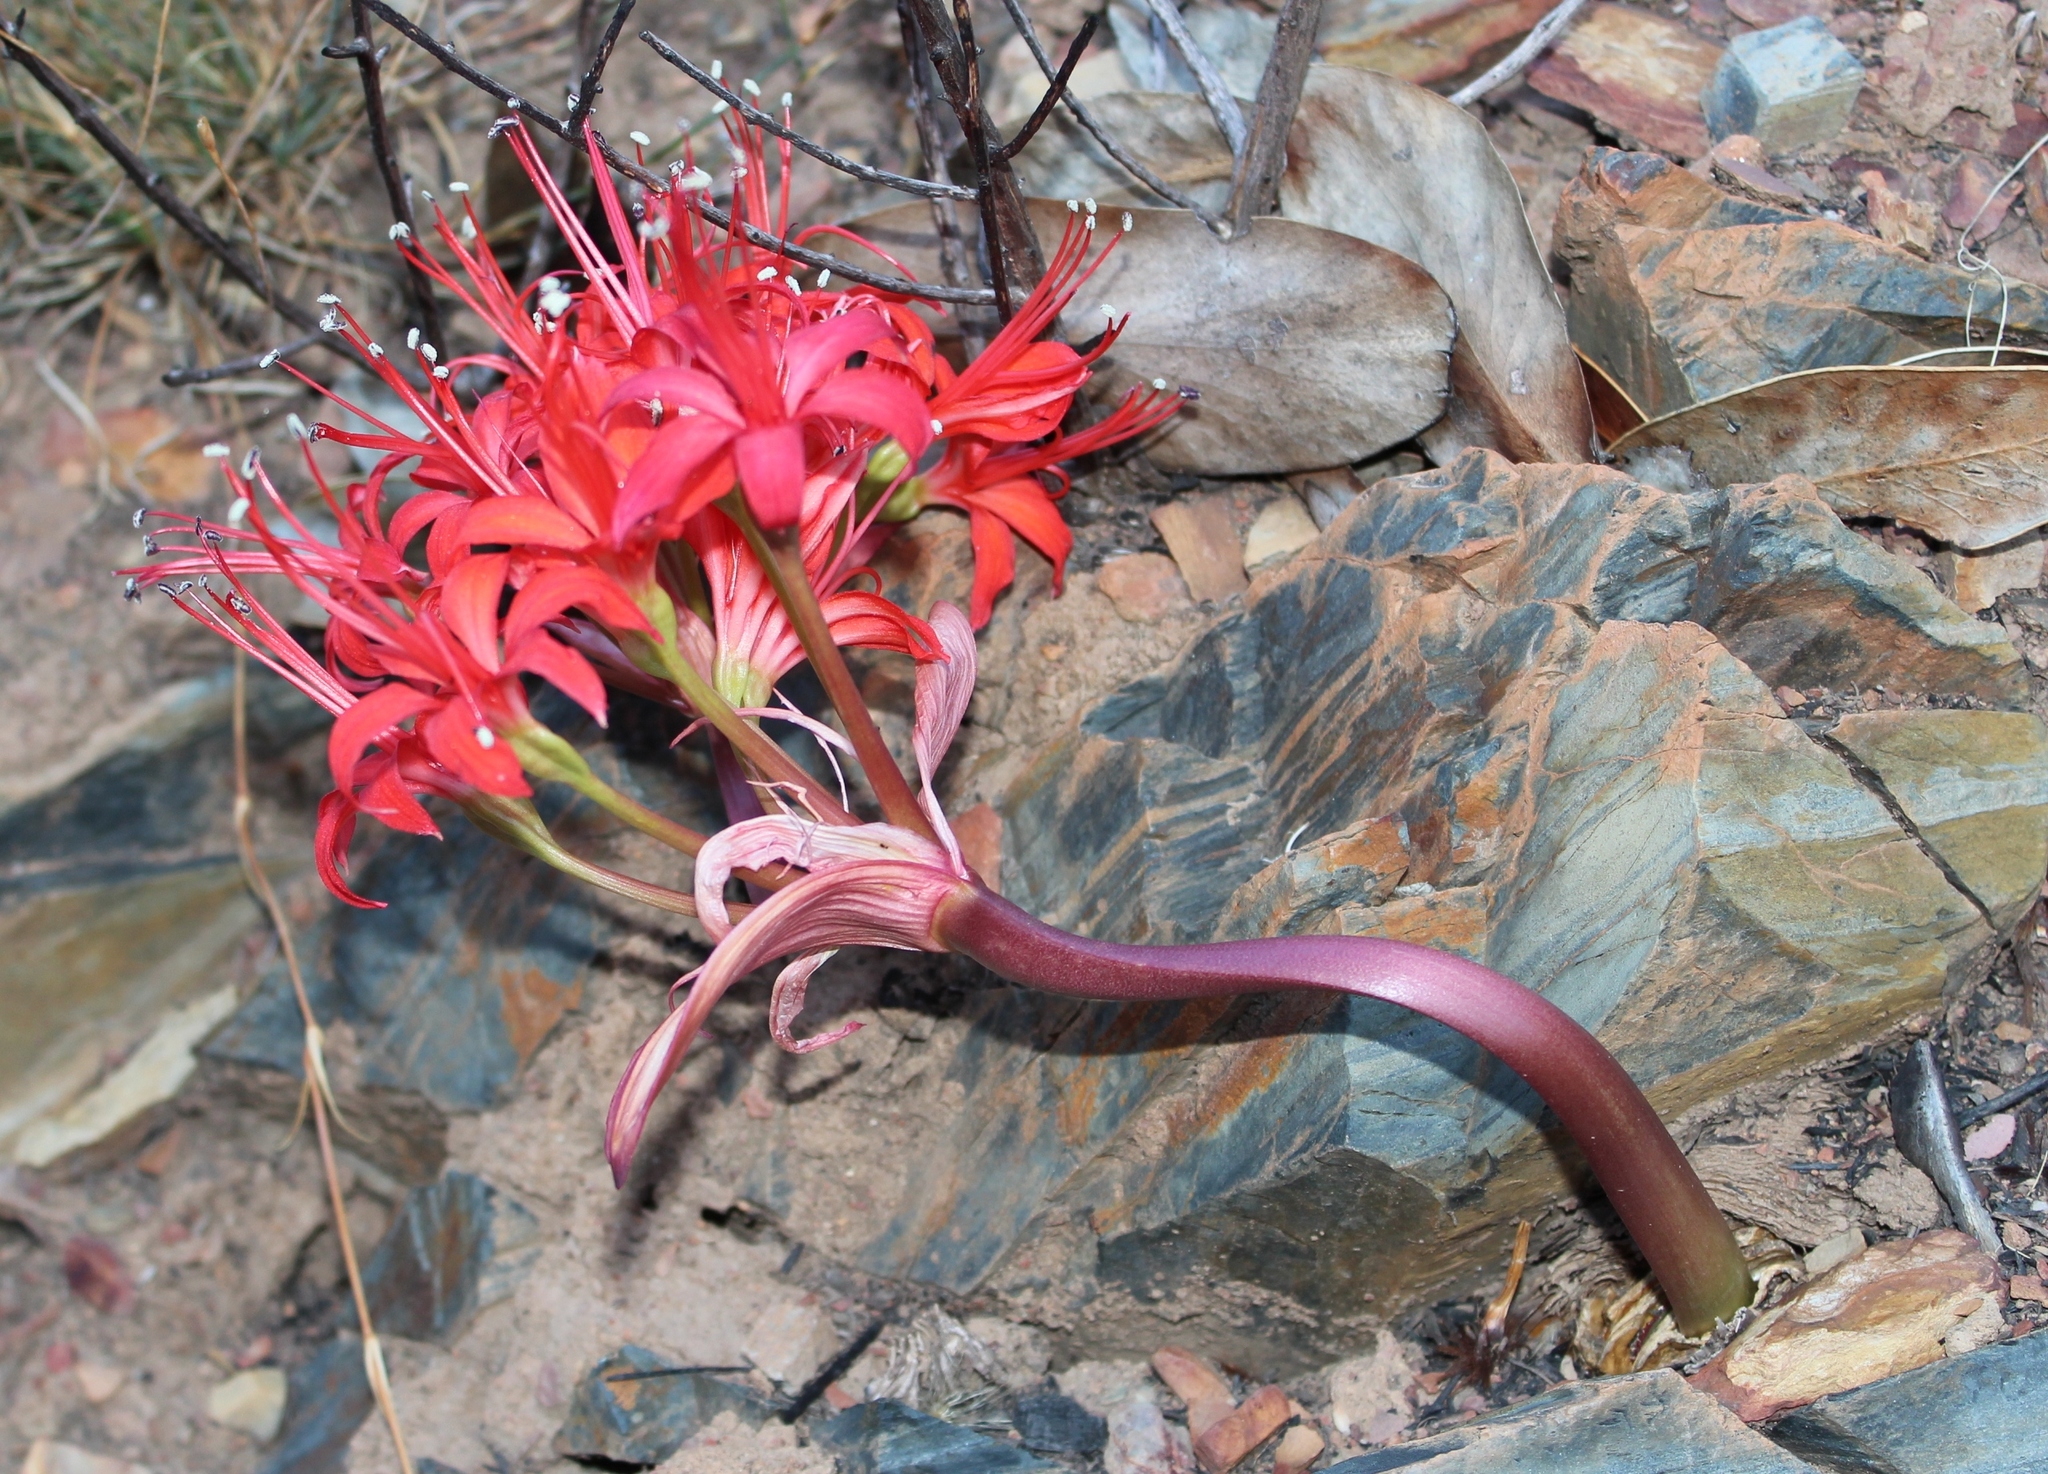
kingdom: Plantae
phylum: Tracheophyta
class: Liliopsida
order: Asparagales
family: Amaryllidaceae
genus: Brunsvigia
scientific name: Brunsvigia marginata
